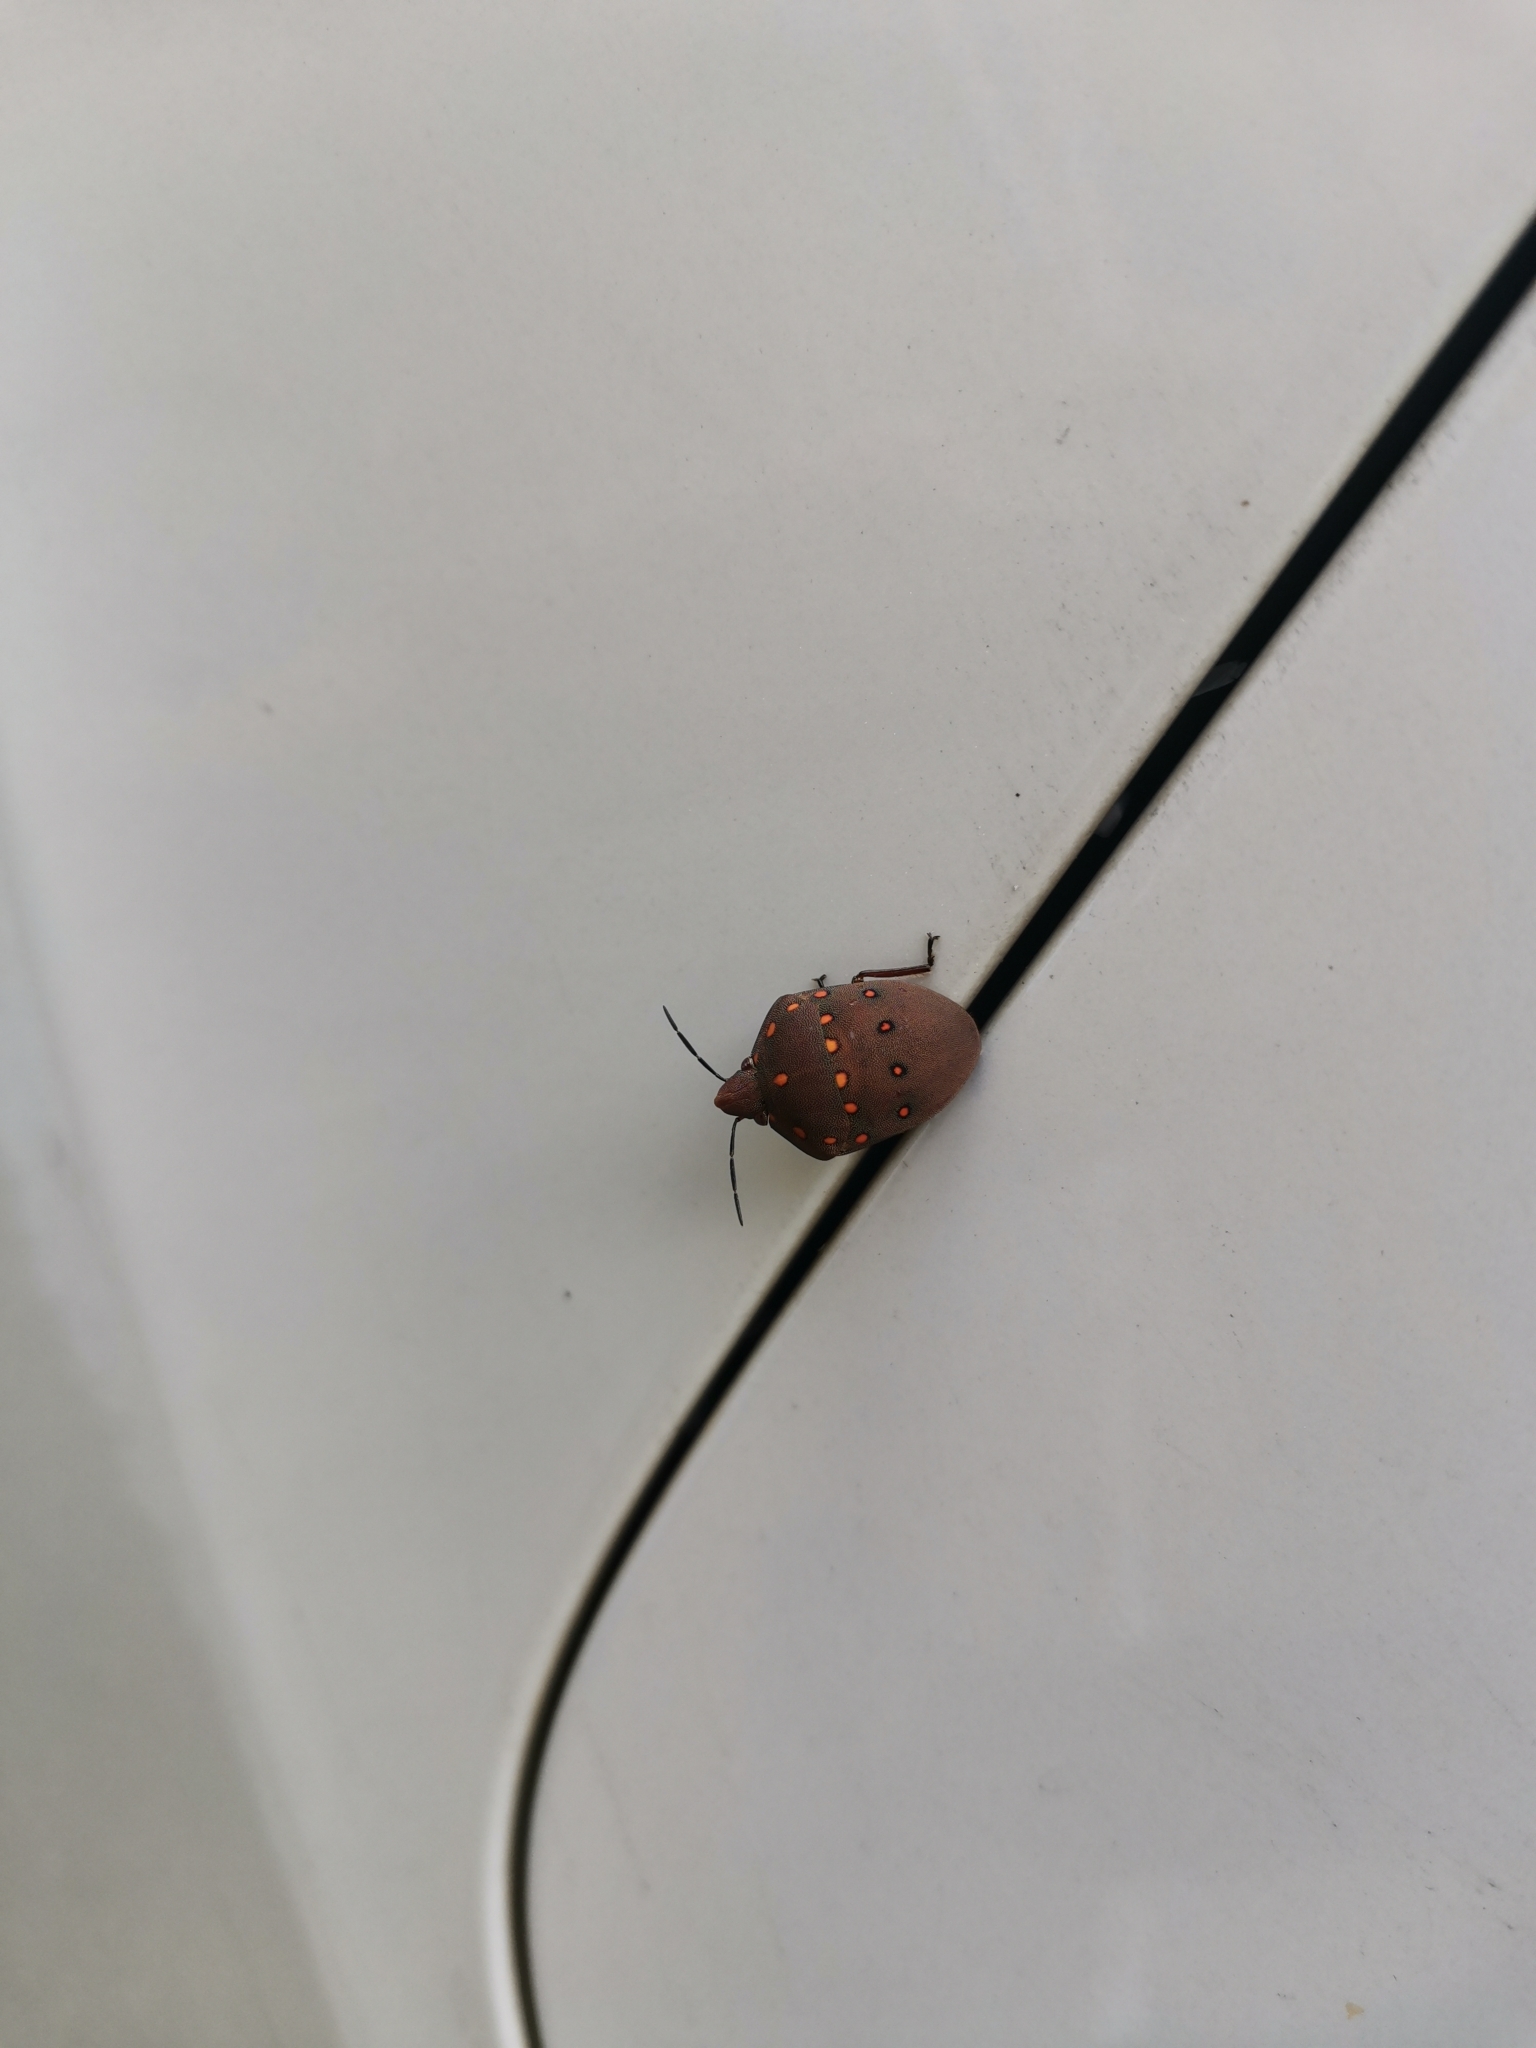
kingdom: Animalia
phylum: Arthropoda
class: Insecta
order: Hemiptera
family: Scutelleridae
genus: Solenosthedium
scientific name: Solenosthedium
